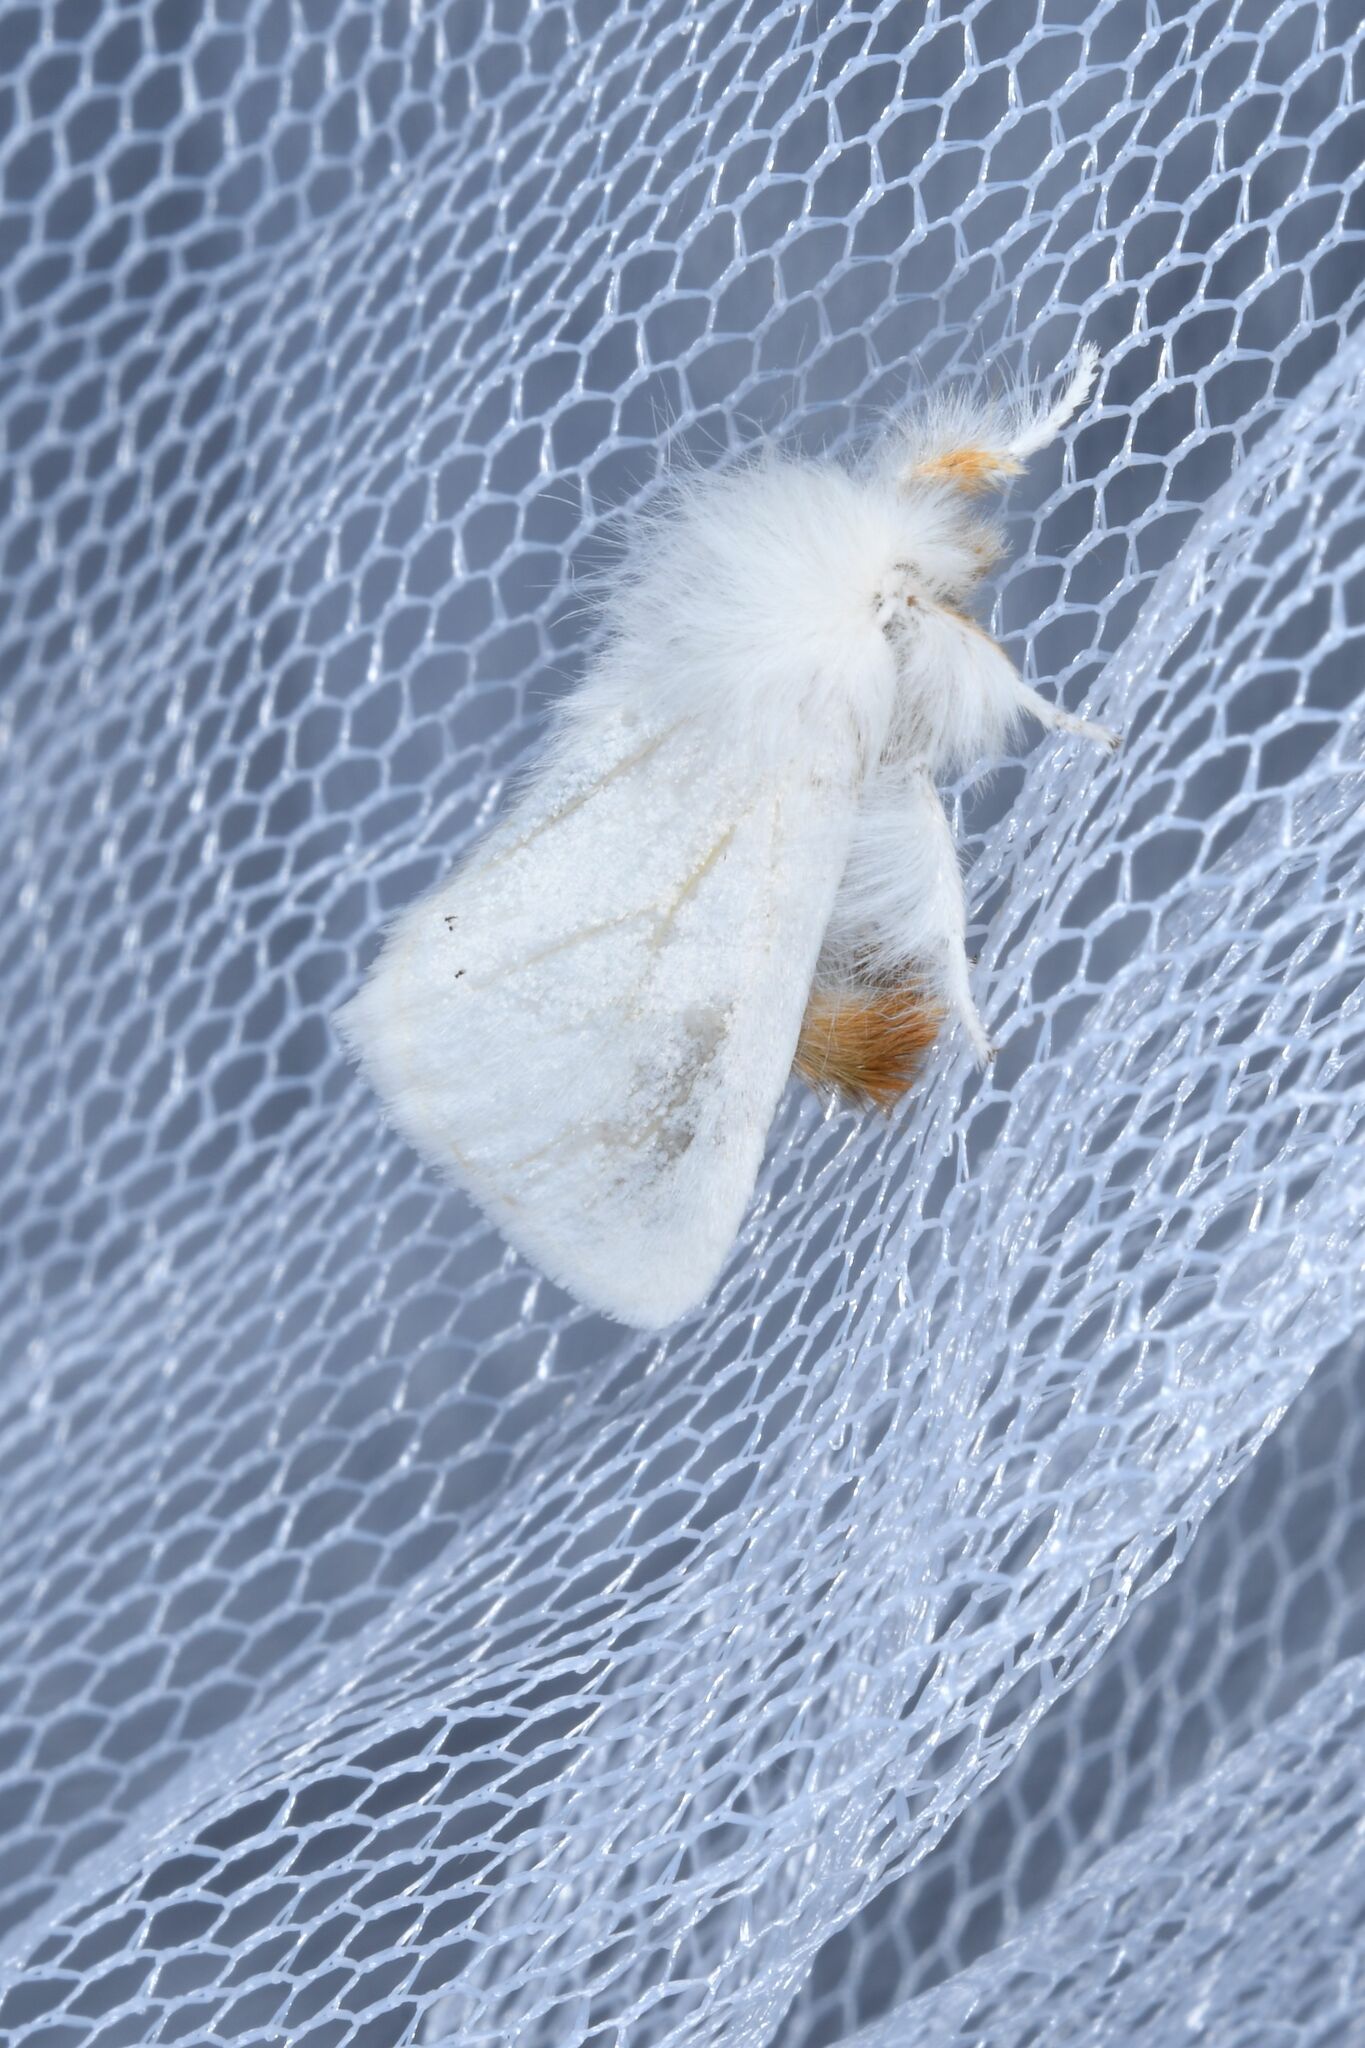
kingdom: Animalia
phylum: Arthropoda
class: Insecta
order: Lepidoptera
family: Erebidae
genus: Euproctis
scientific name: Euproctis chrysorrhoea
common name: Brown-tail
